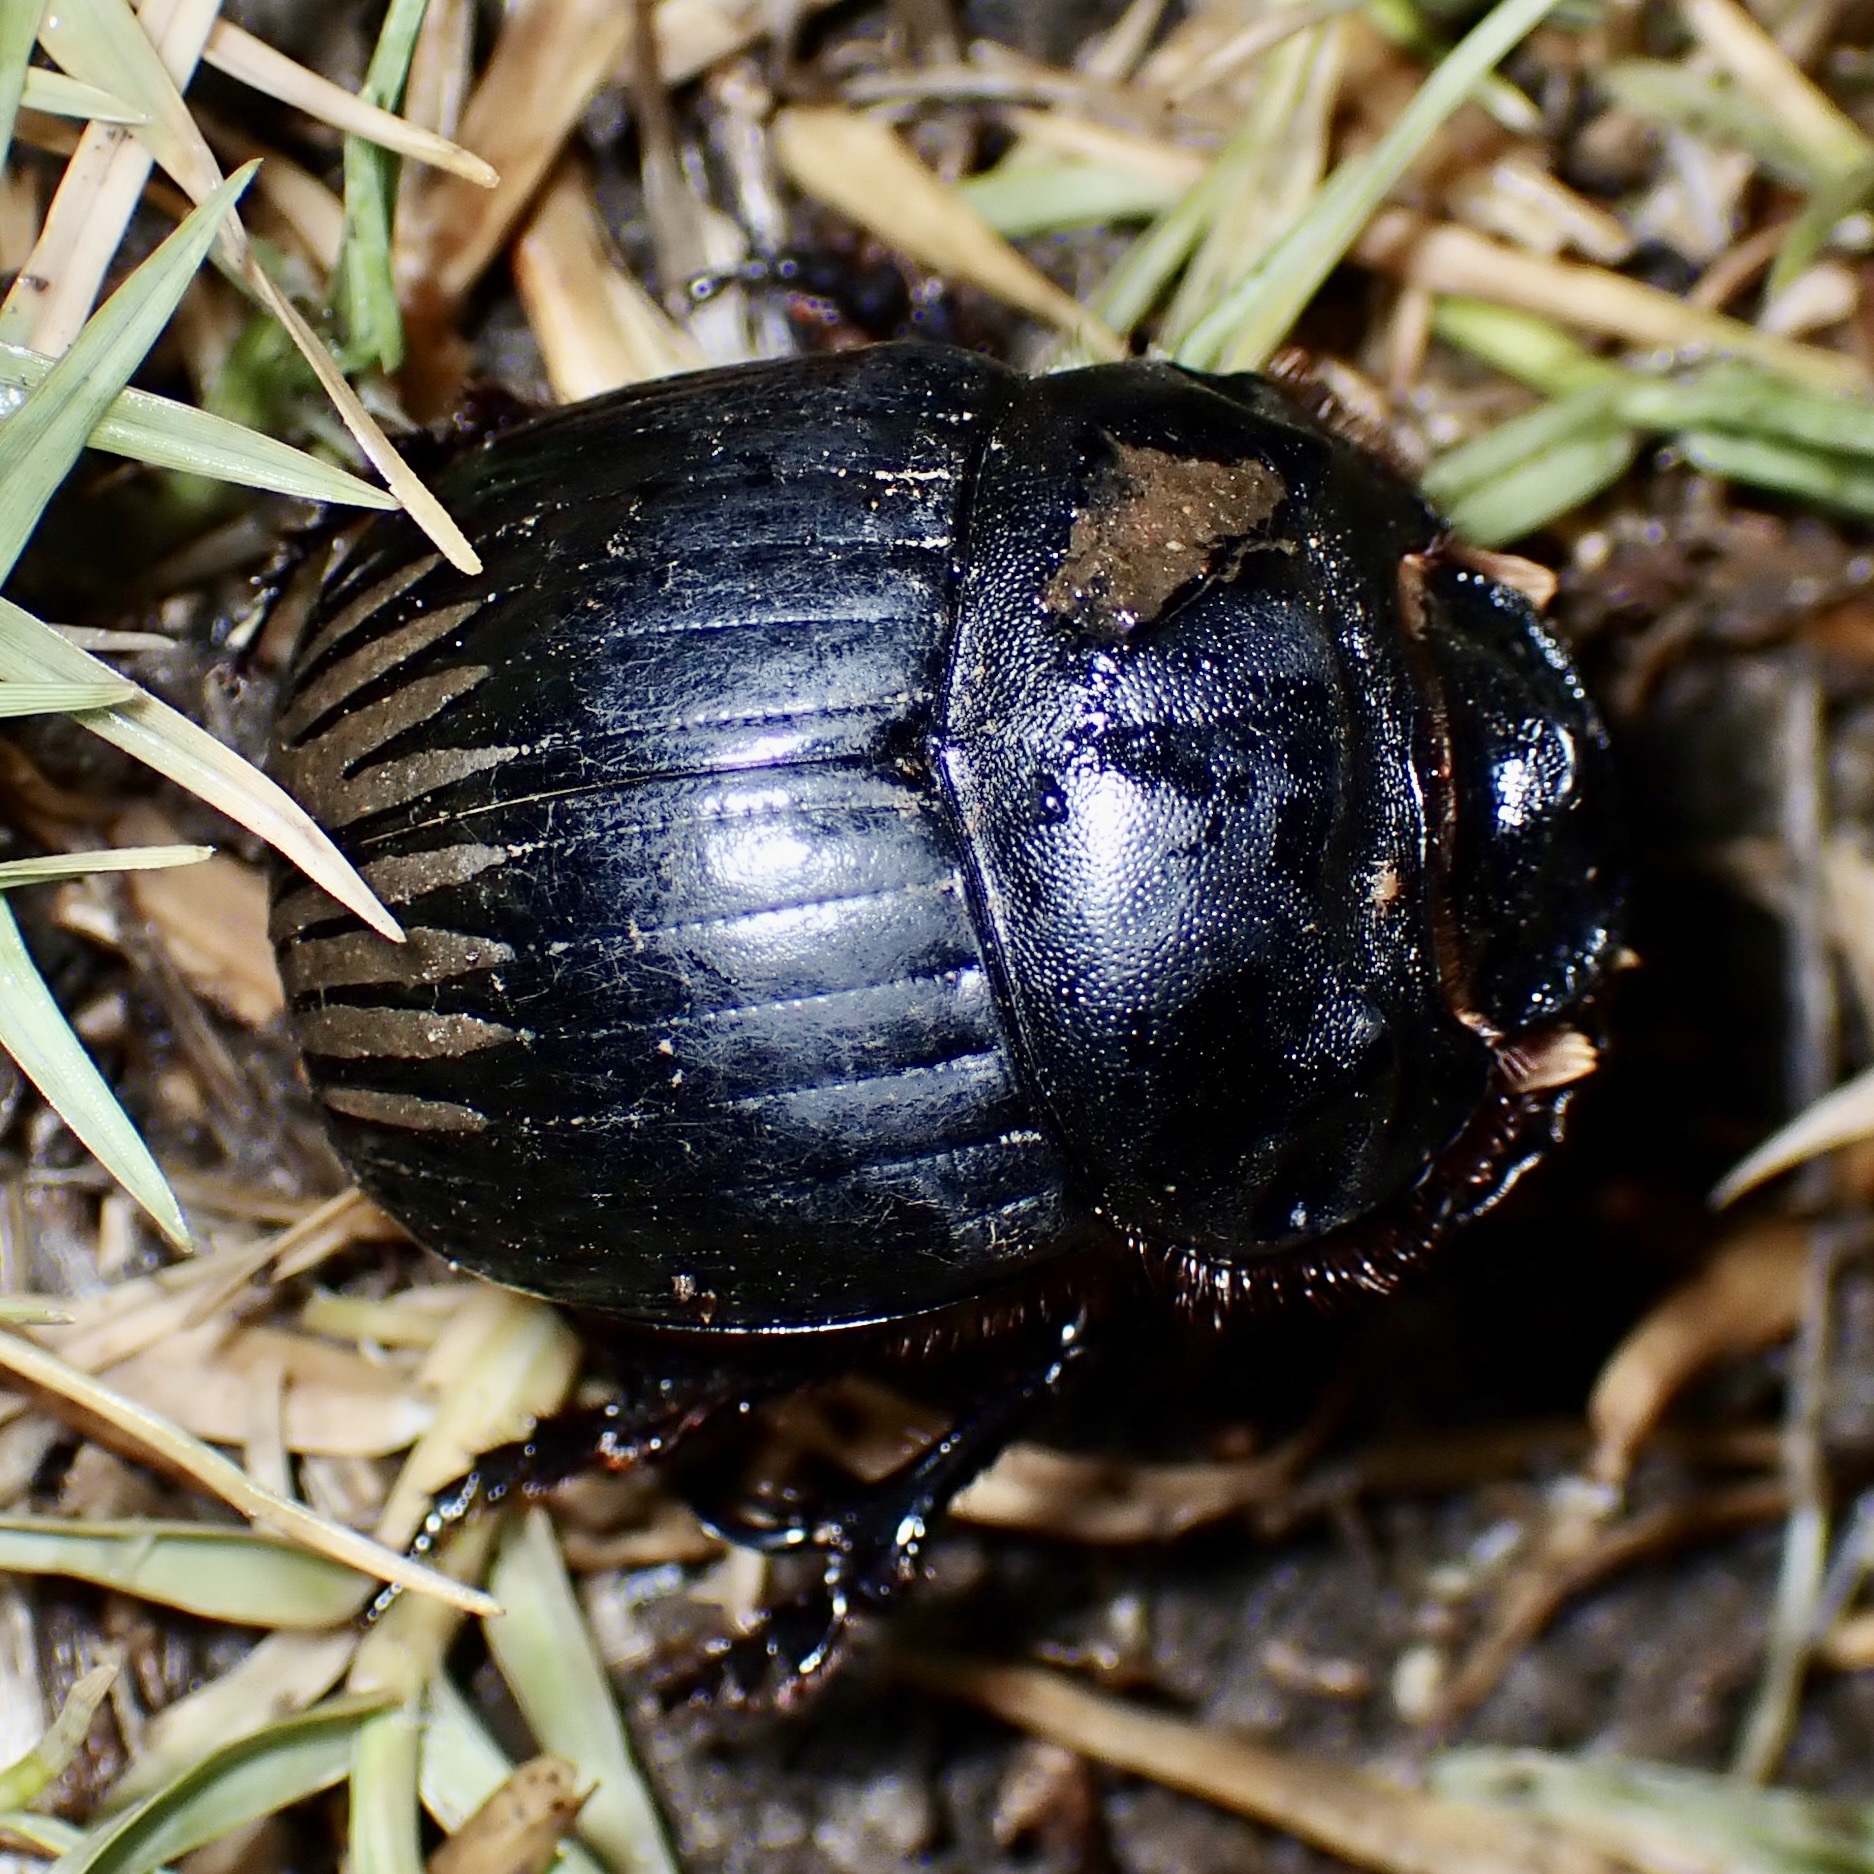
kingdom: Animalia
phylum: Arthropoda
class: Insecta
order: Coleoptera
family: Scarabaeidae
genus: Dichotomius
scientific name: Dichotomius colonicus
